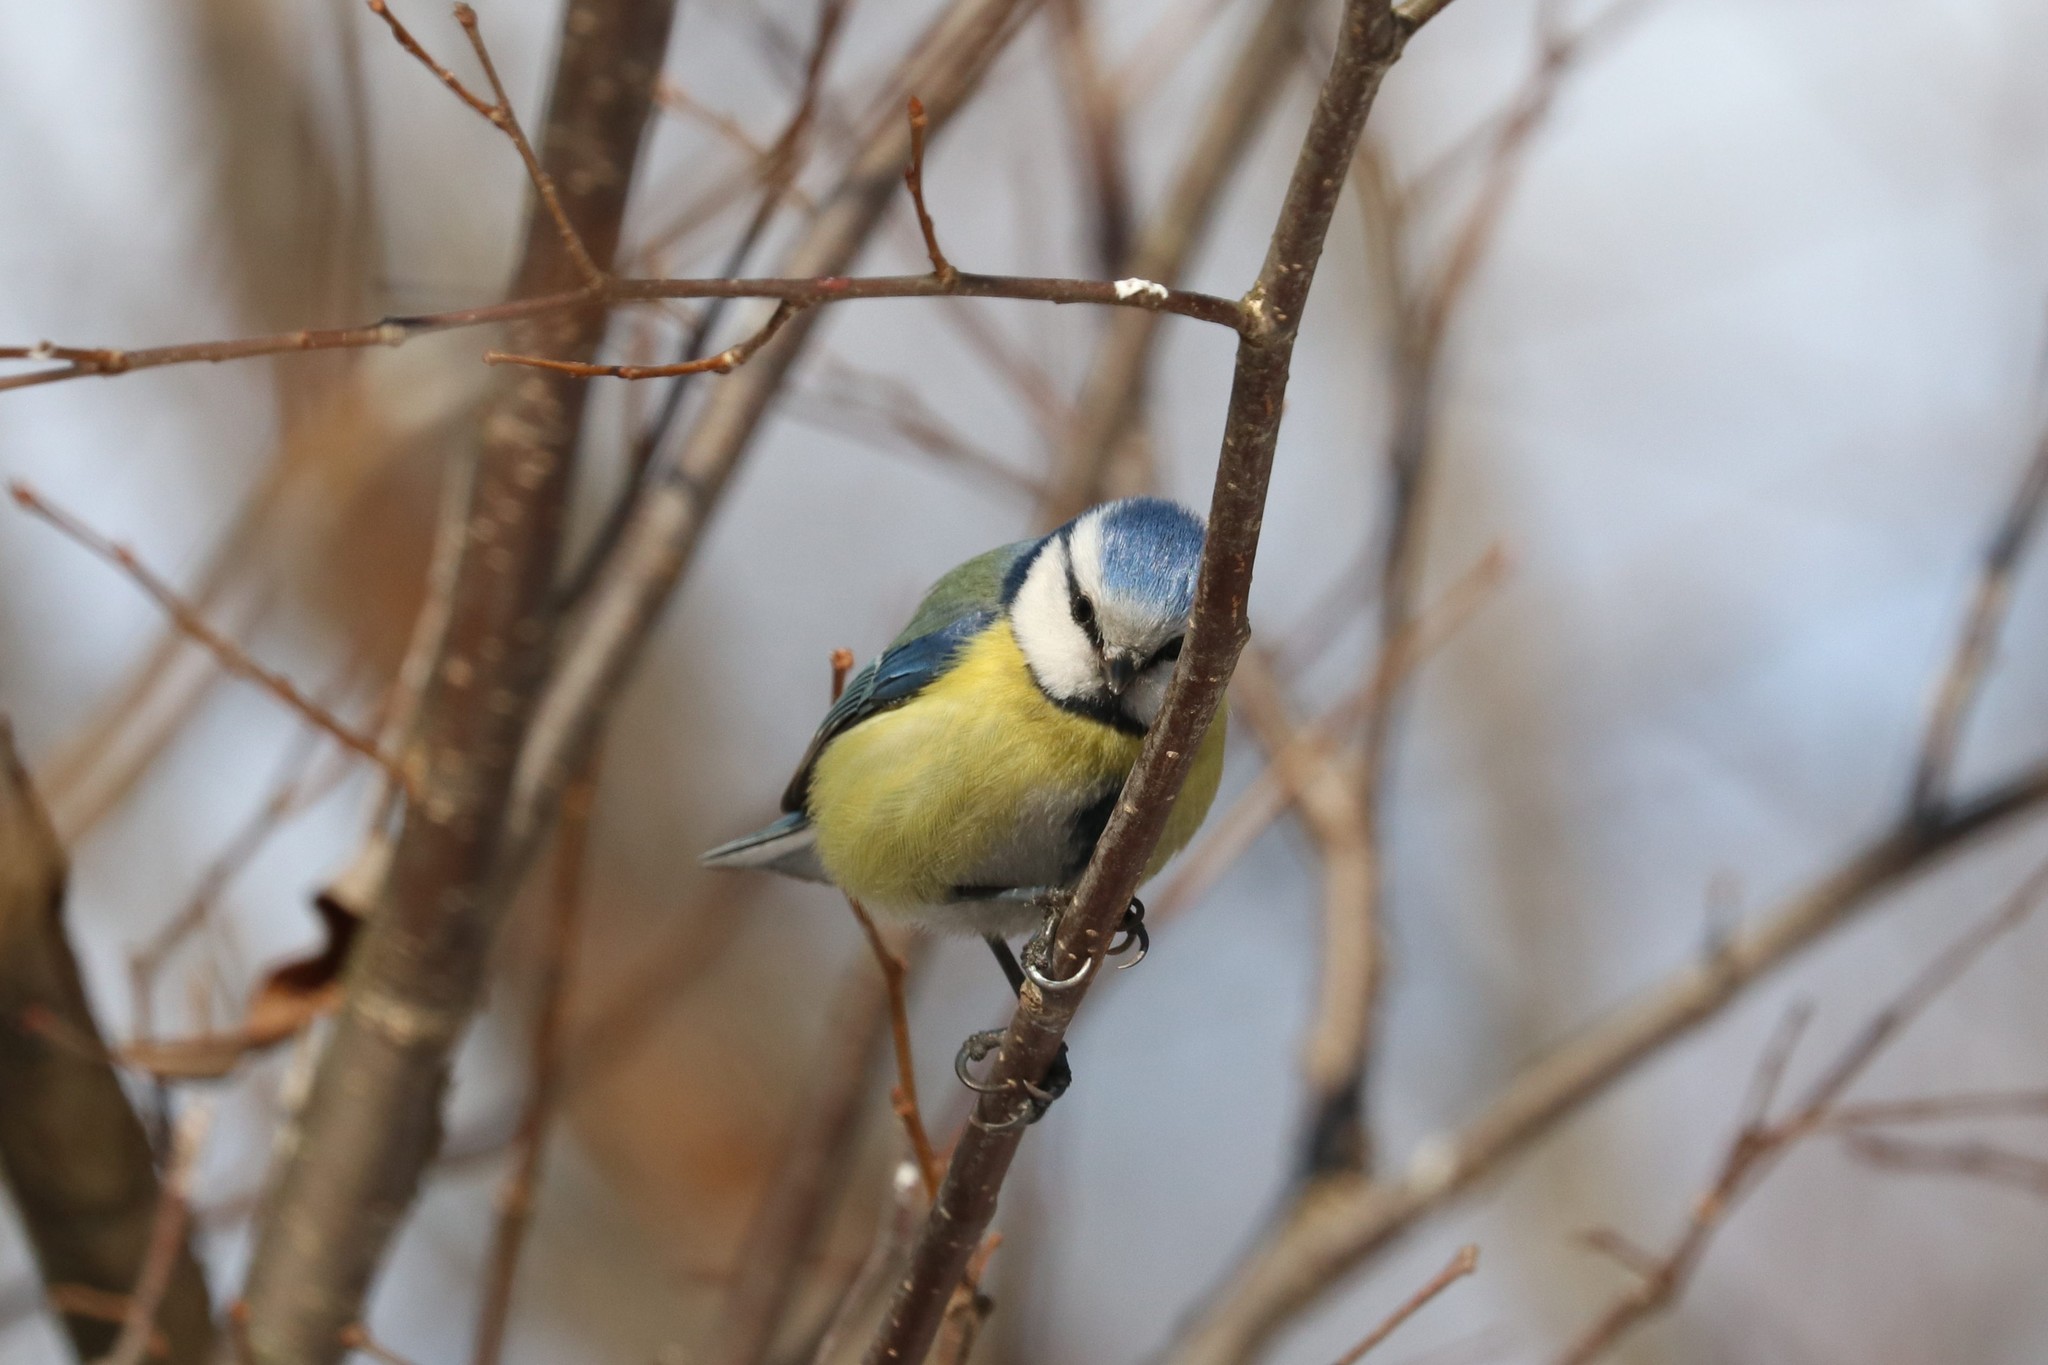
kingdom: Animalia
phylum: Chordata
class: Aves
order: Passeriformes
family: Paridae
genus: Cyanistes
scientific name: Cyanistes caeruleus
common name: Eurasian blue tit
